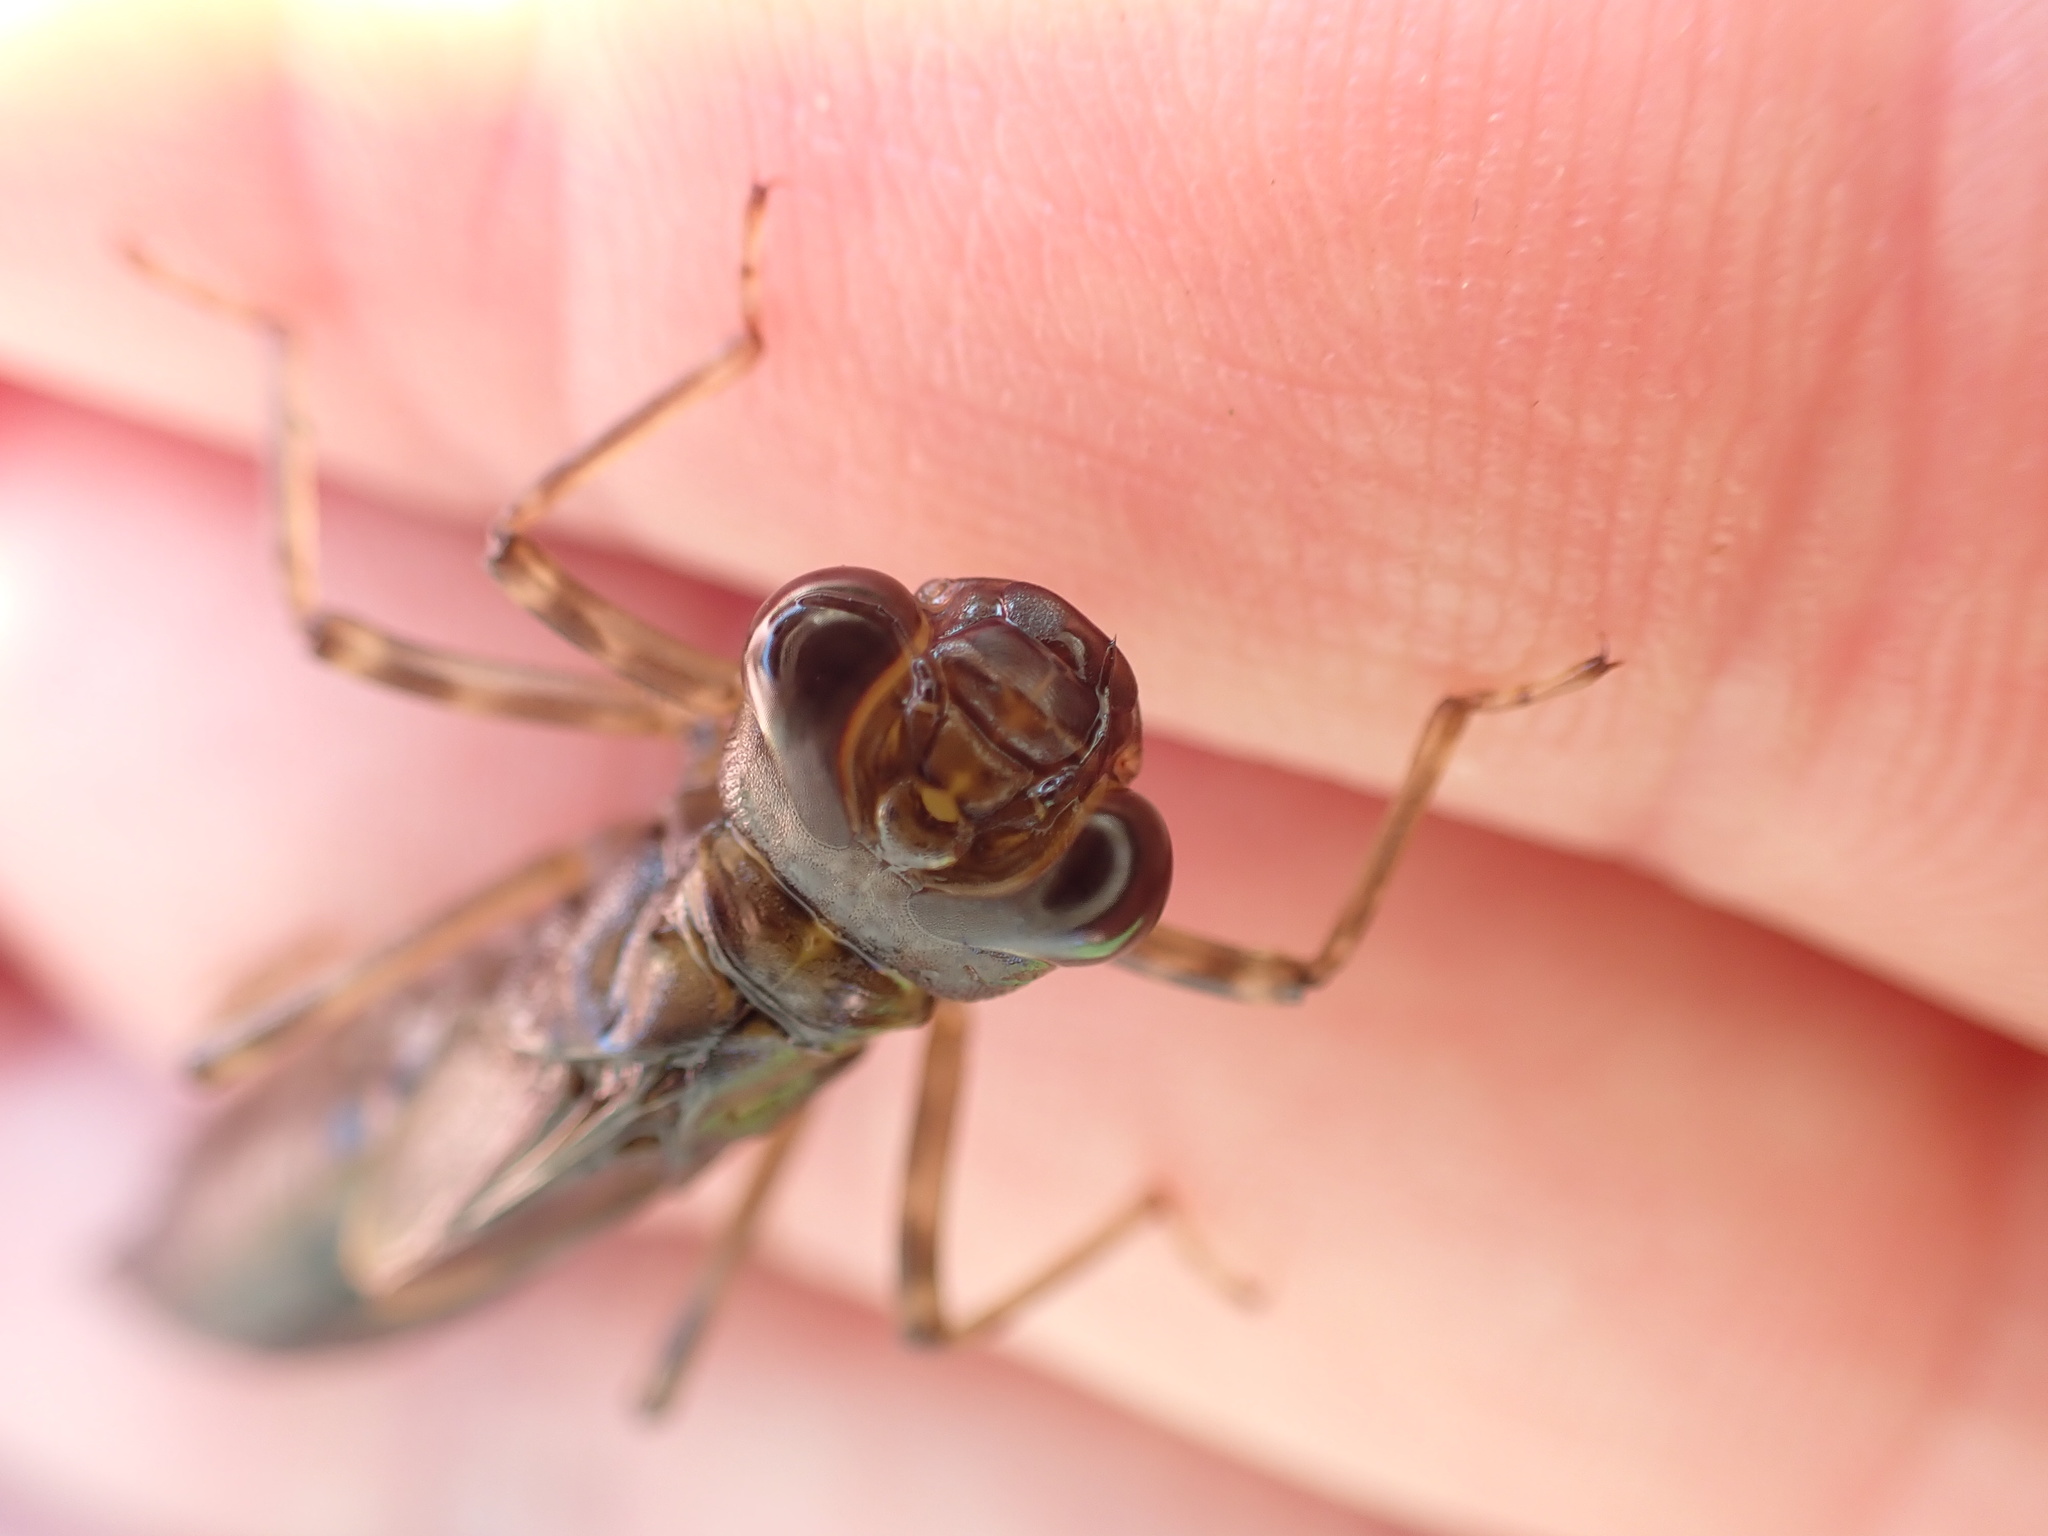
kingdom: Animalia
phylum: Arthropoda
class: Insecta
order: Odonata
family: Aeshnidae
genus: Aeshna
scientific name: Aeshna cyanea
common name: Southern hawker
